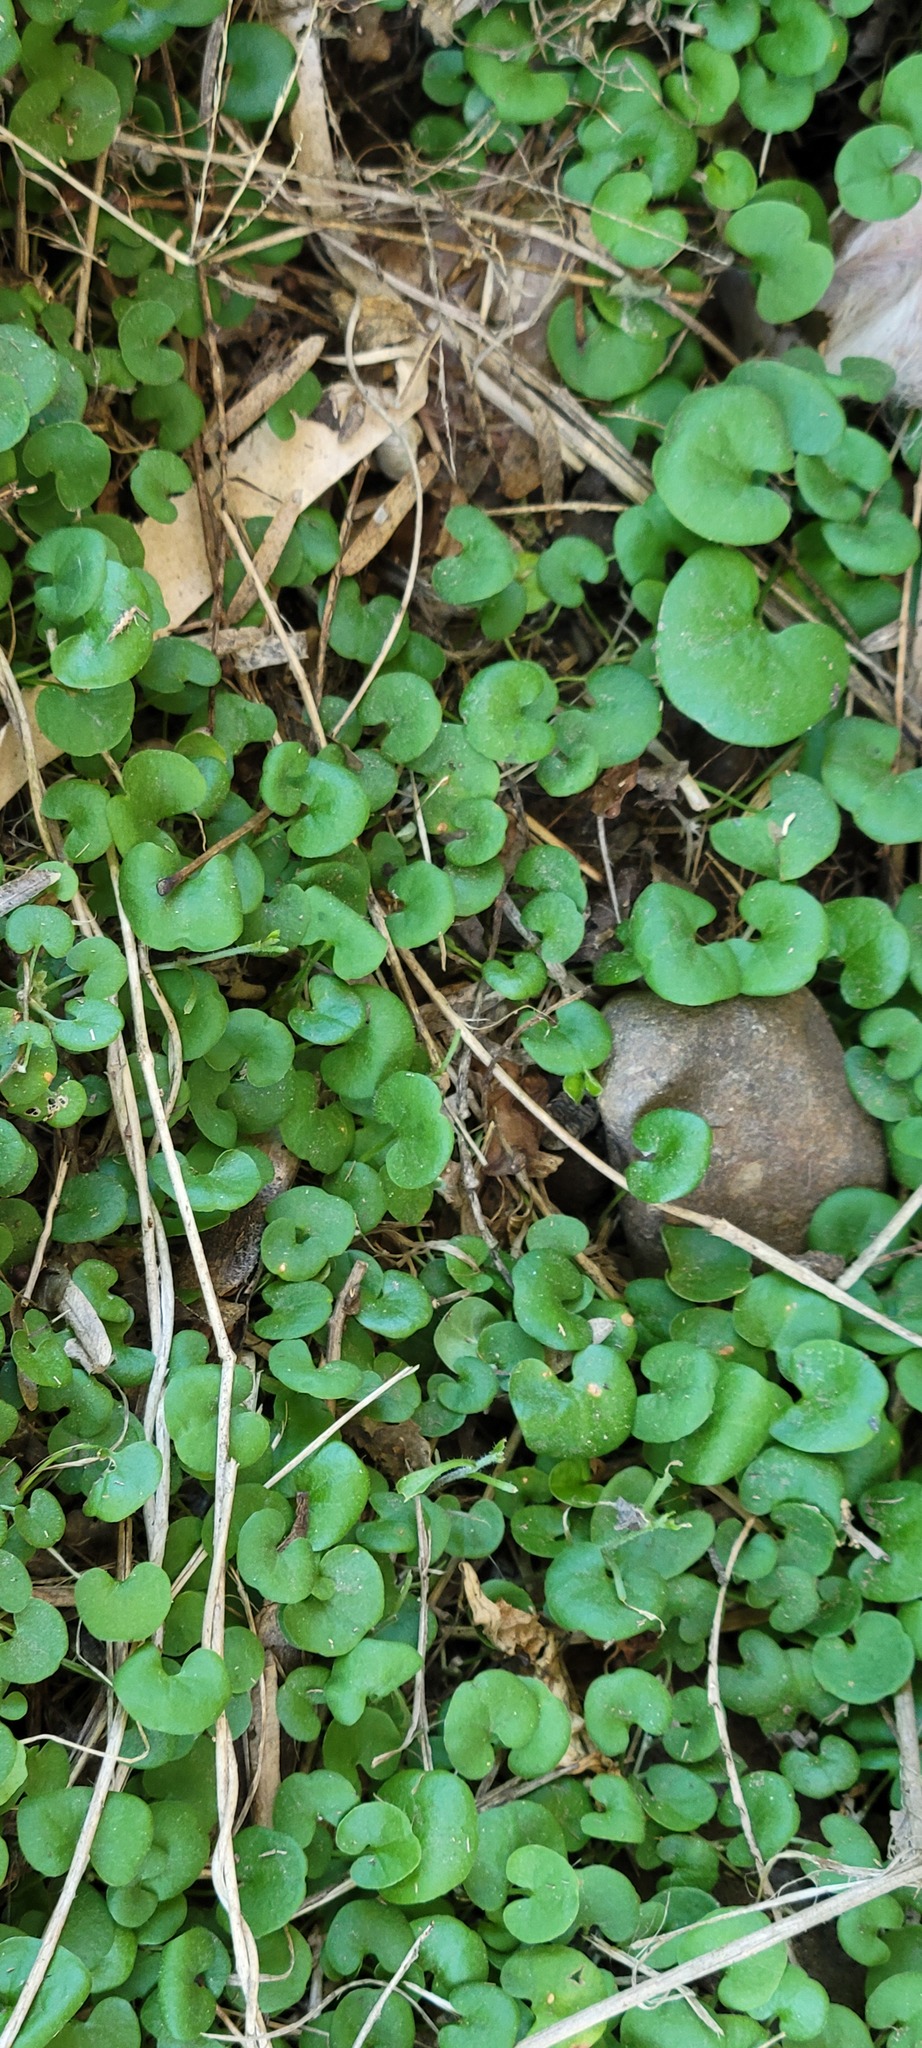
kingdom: Plantae
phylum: Tracheophyta
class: Magnoliopsida
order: Solanales
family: Convolvulaceae
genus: Dichondra
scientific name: Dichondra micrantha
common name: Kidneyweed
